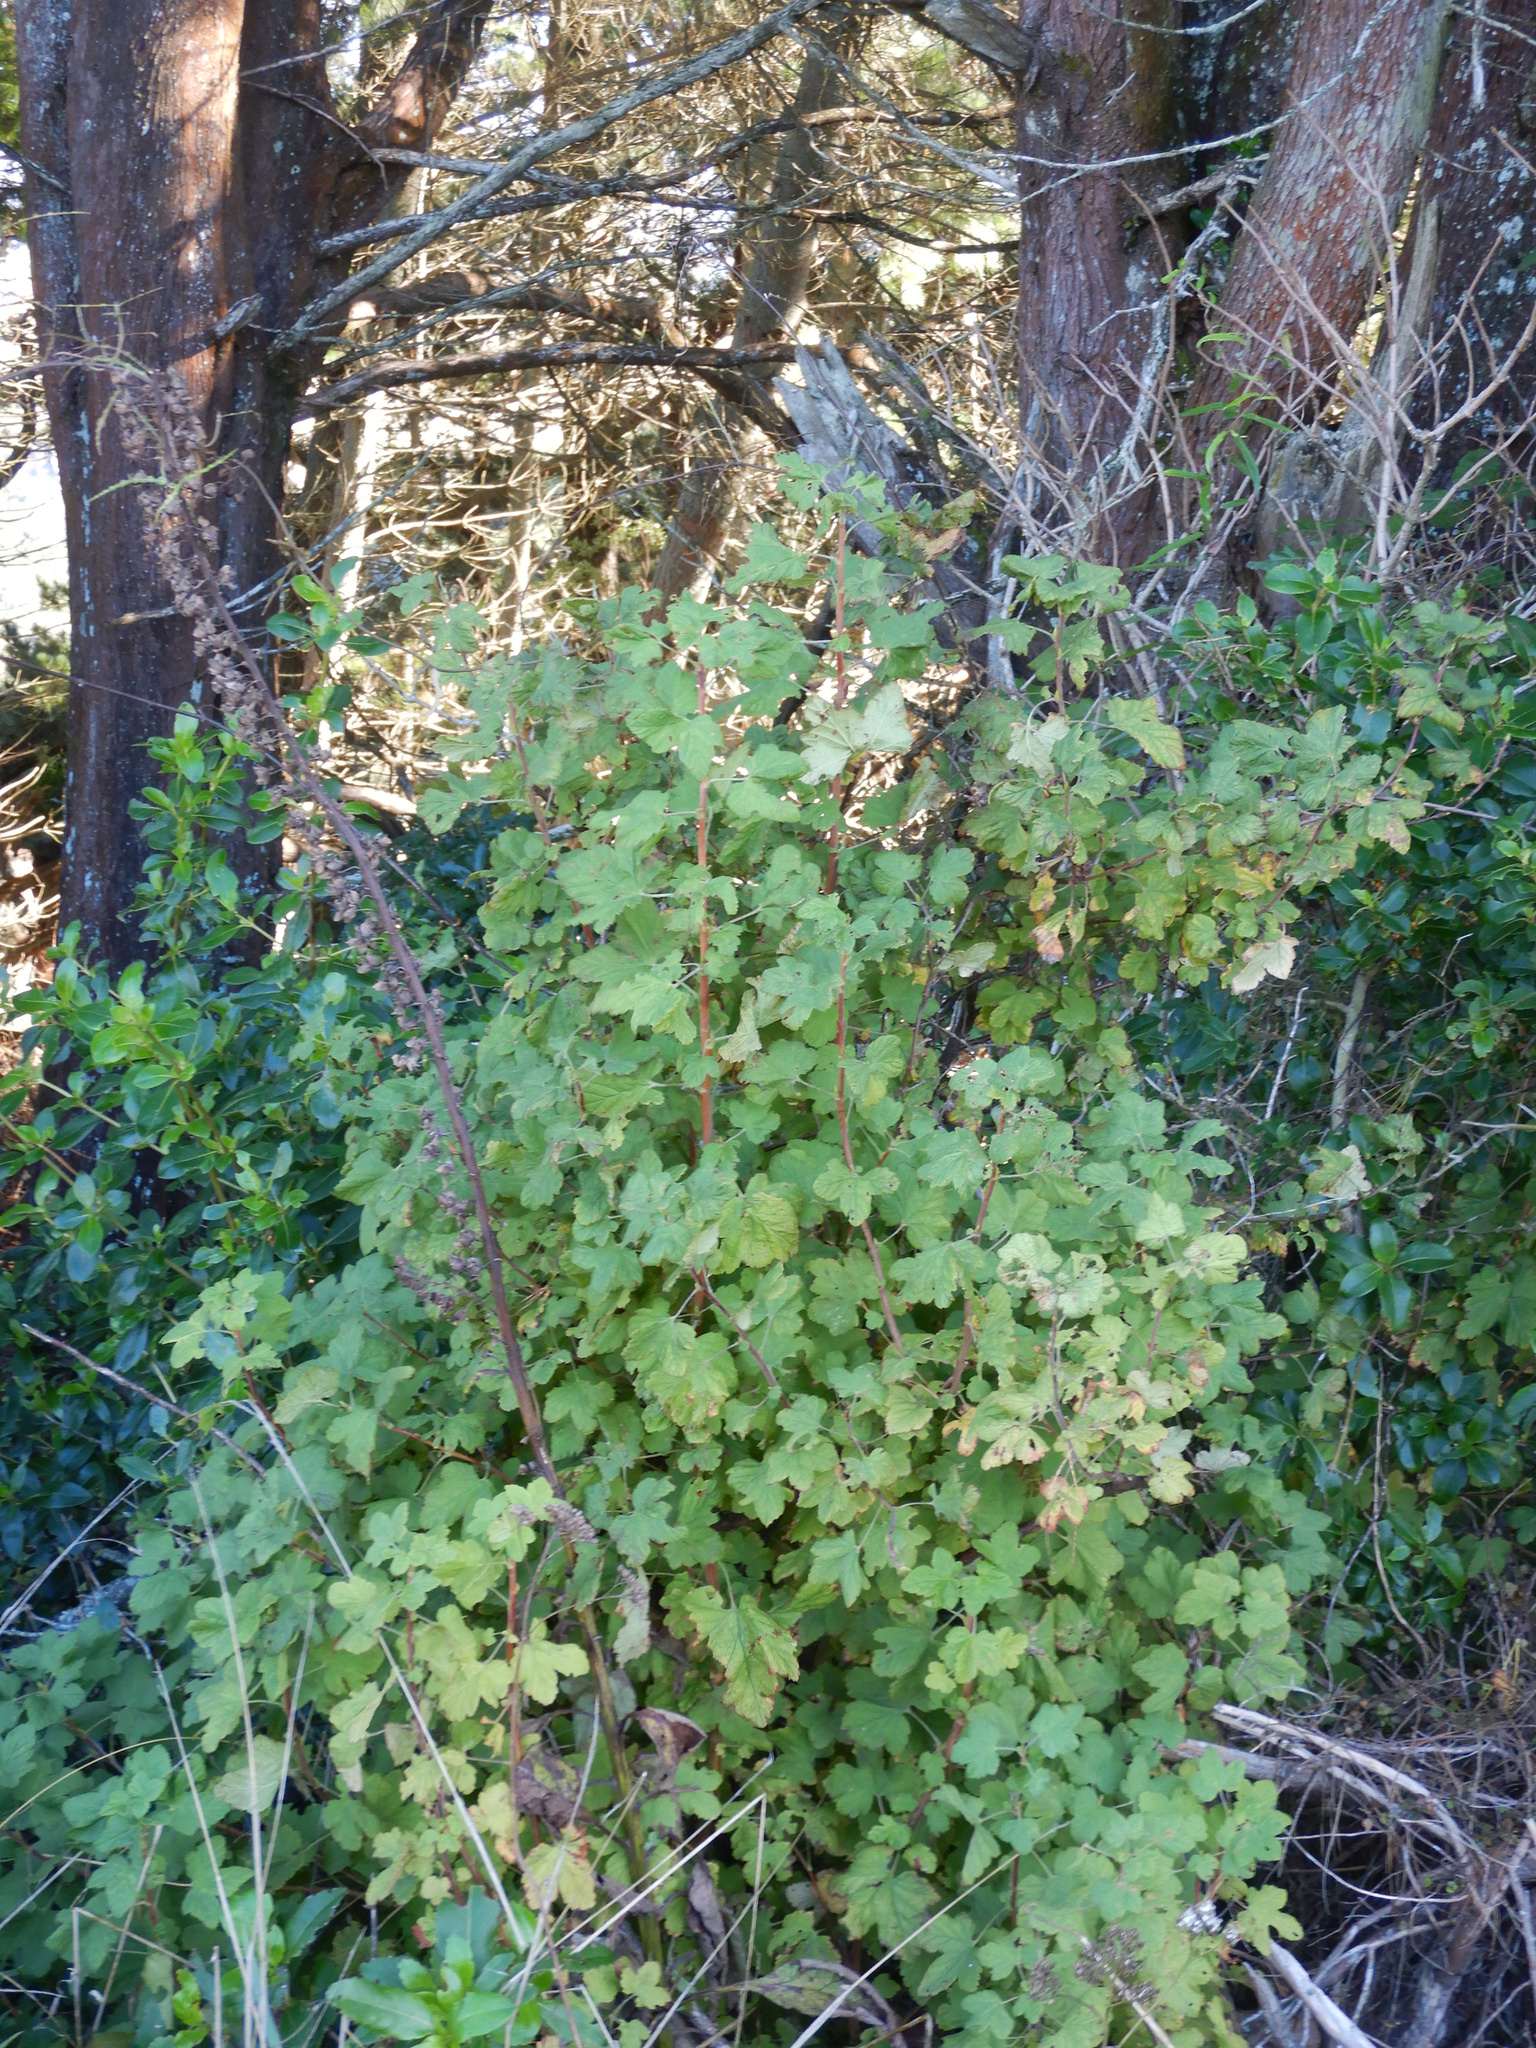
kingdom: Plantae
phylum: Tracheophyta
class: Magnoliopsida
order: Saxifragales
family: Grossulariaceae
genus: Ribes
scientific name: Ribes sanguineum
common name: Flowering currant
